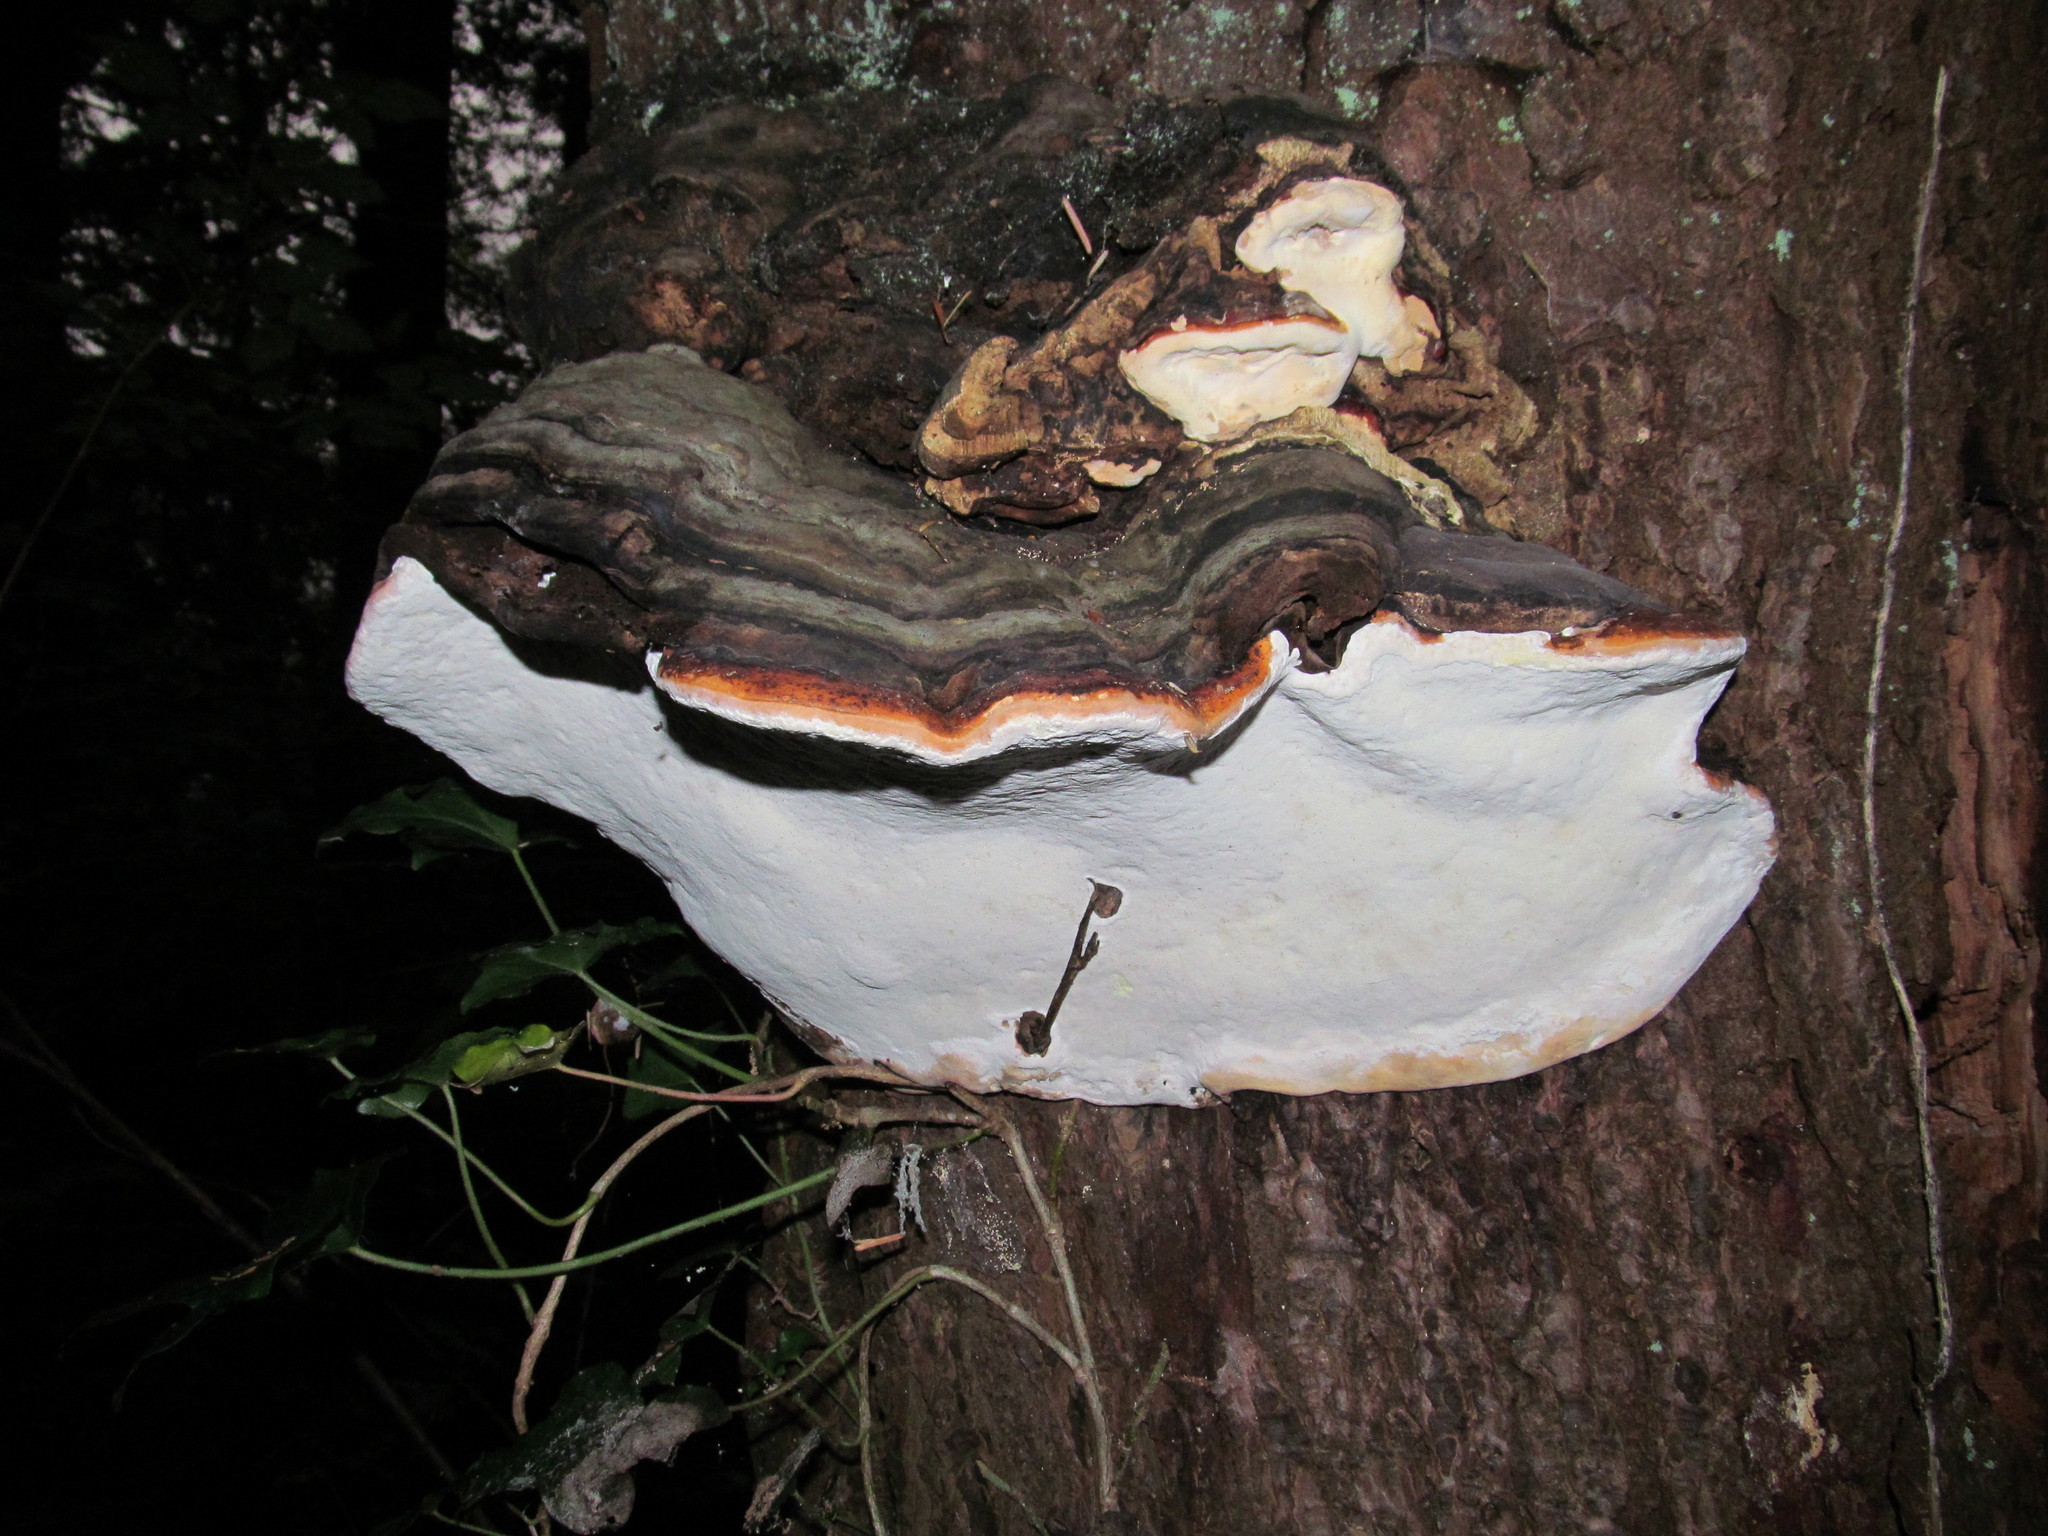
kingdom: Fungi
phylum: Basidiomycota
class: Agaricomycetes
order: Polyporales
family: Fomitopsidaceae
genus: Fomitopsis
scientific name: Fomitopsis mounceae
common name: Northern red belt
